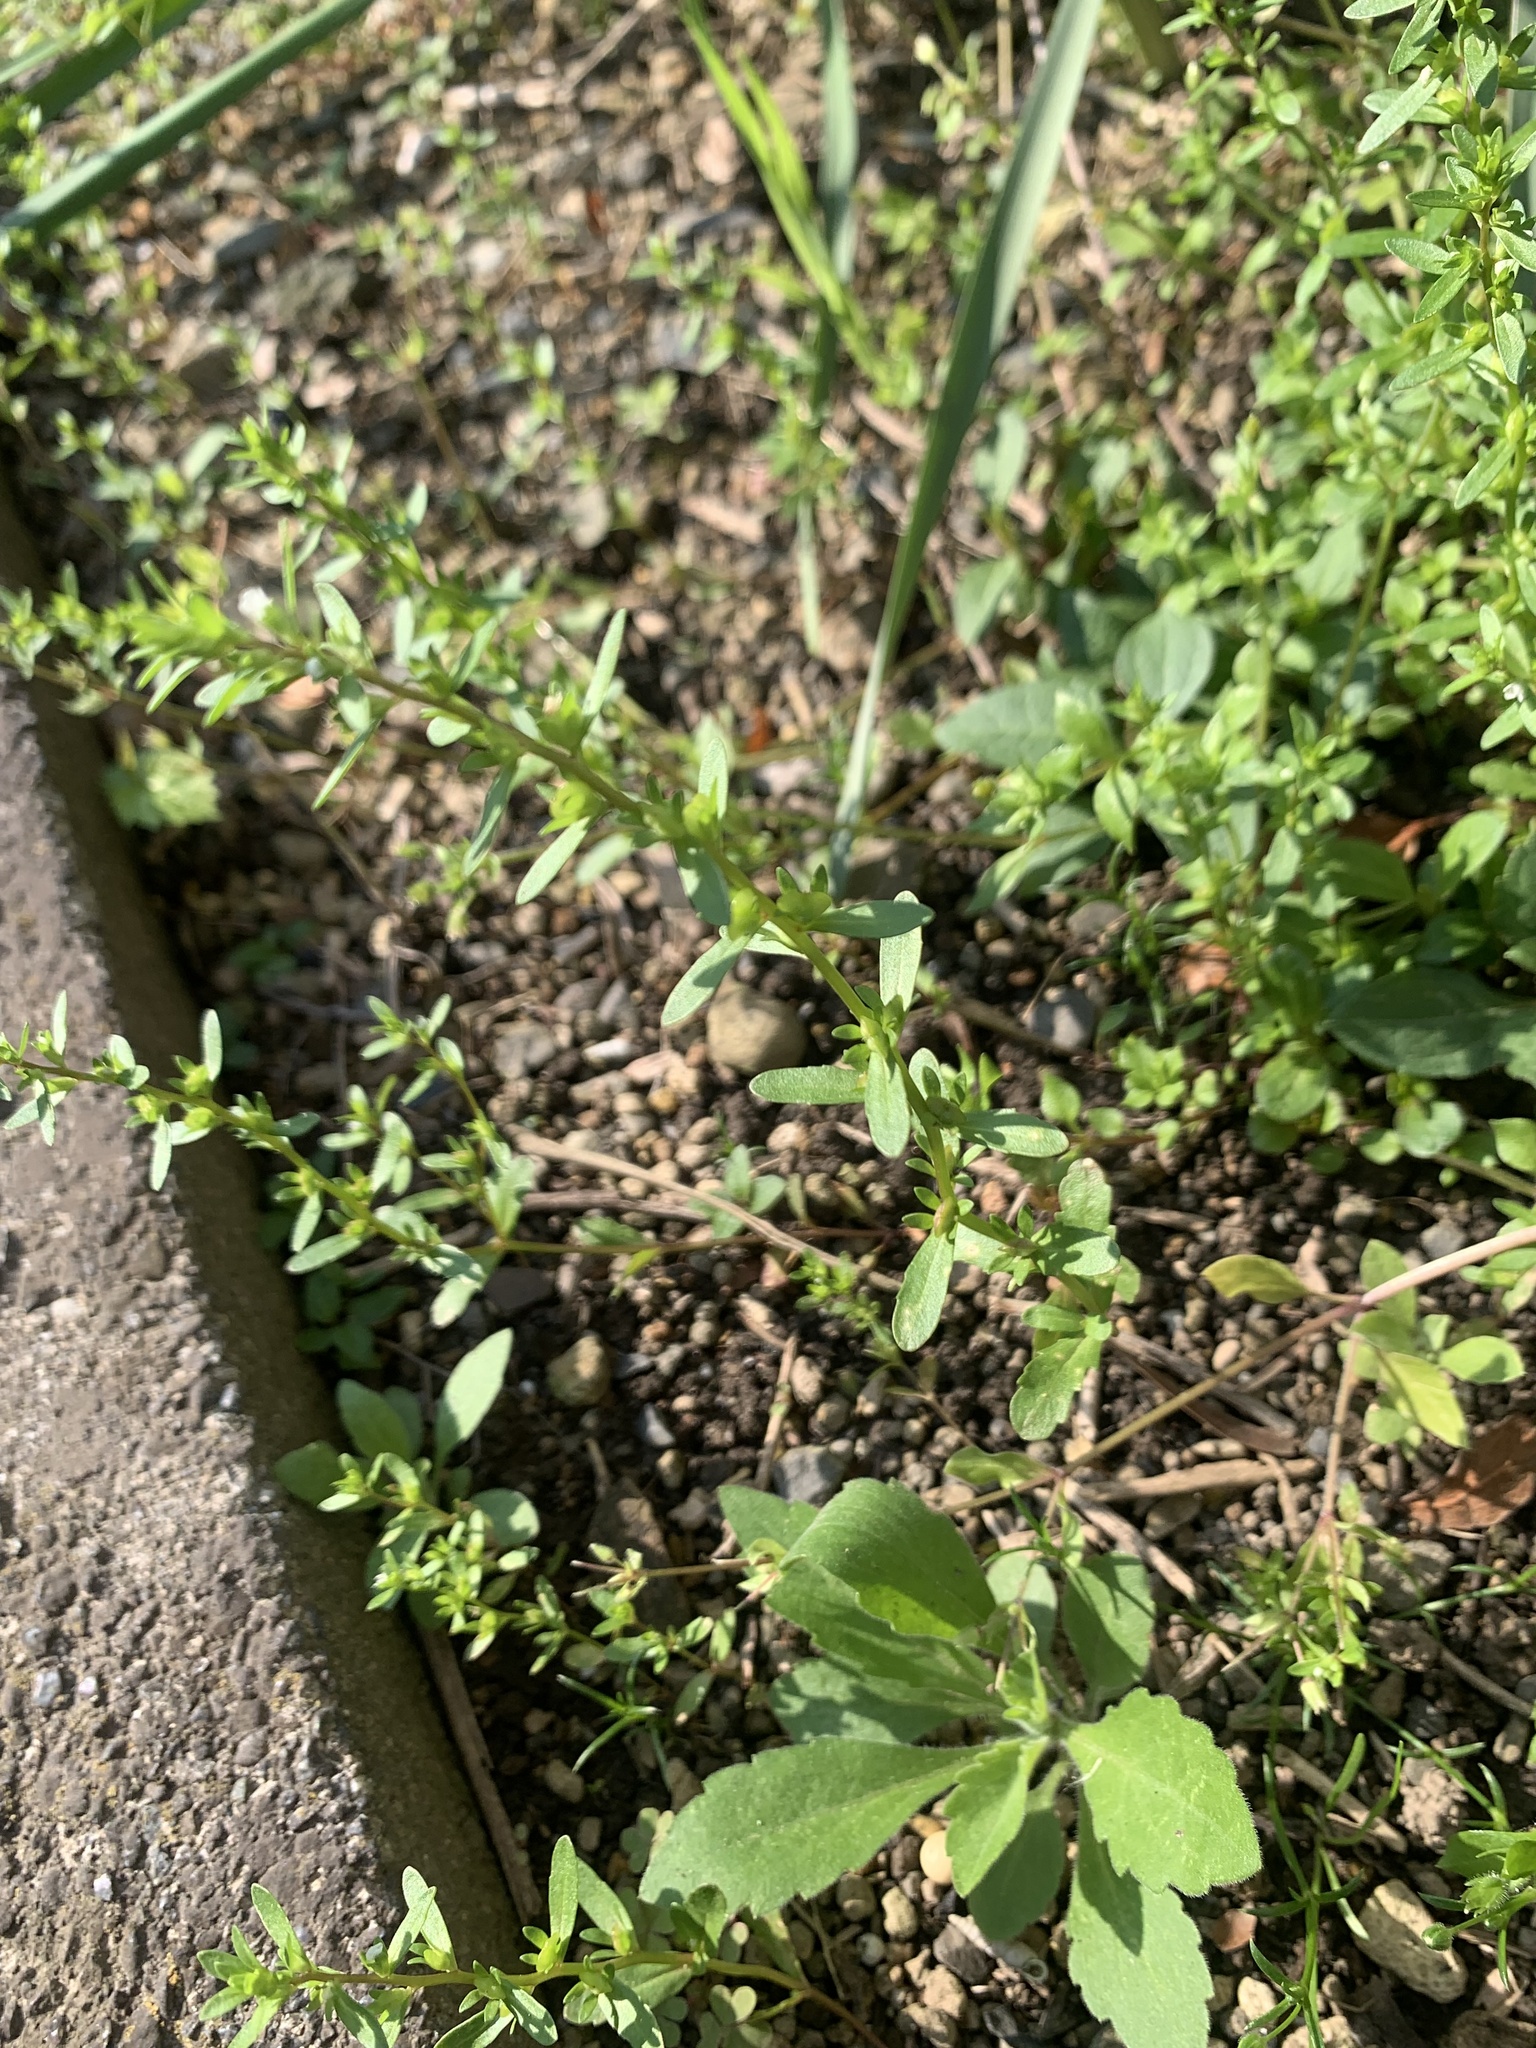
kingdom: Plantae
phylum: Tracheophyta
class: Magnoliopsida
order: Lamiales
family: Plantaginaceae
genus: Veronica
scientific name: Veronica peregrina
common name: Neckweed
